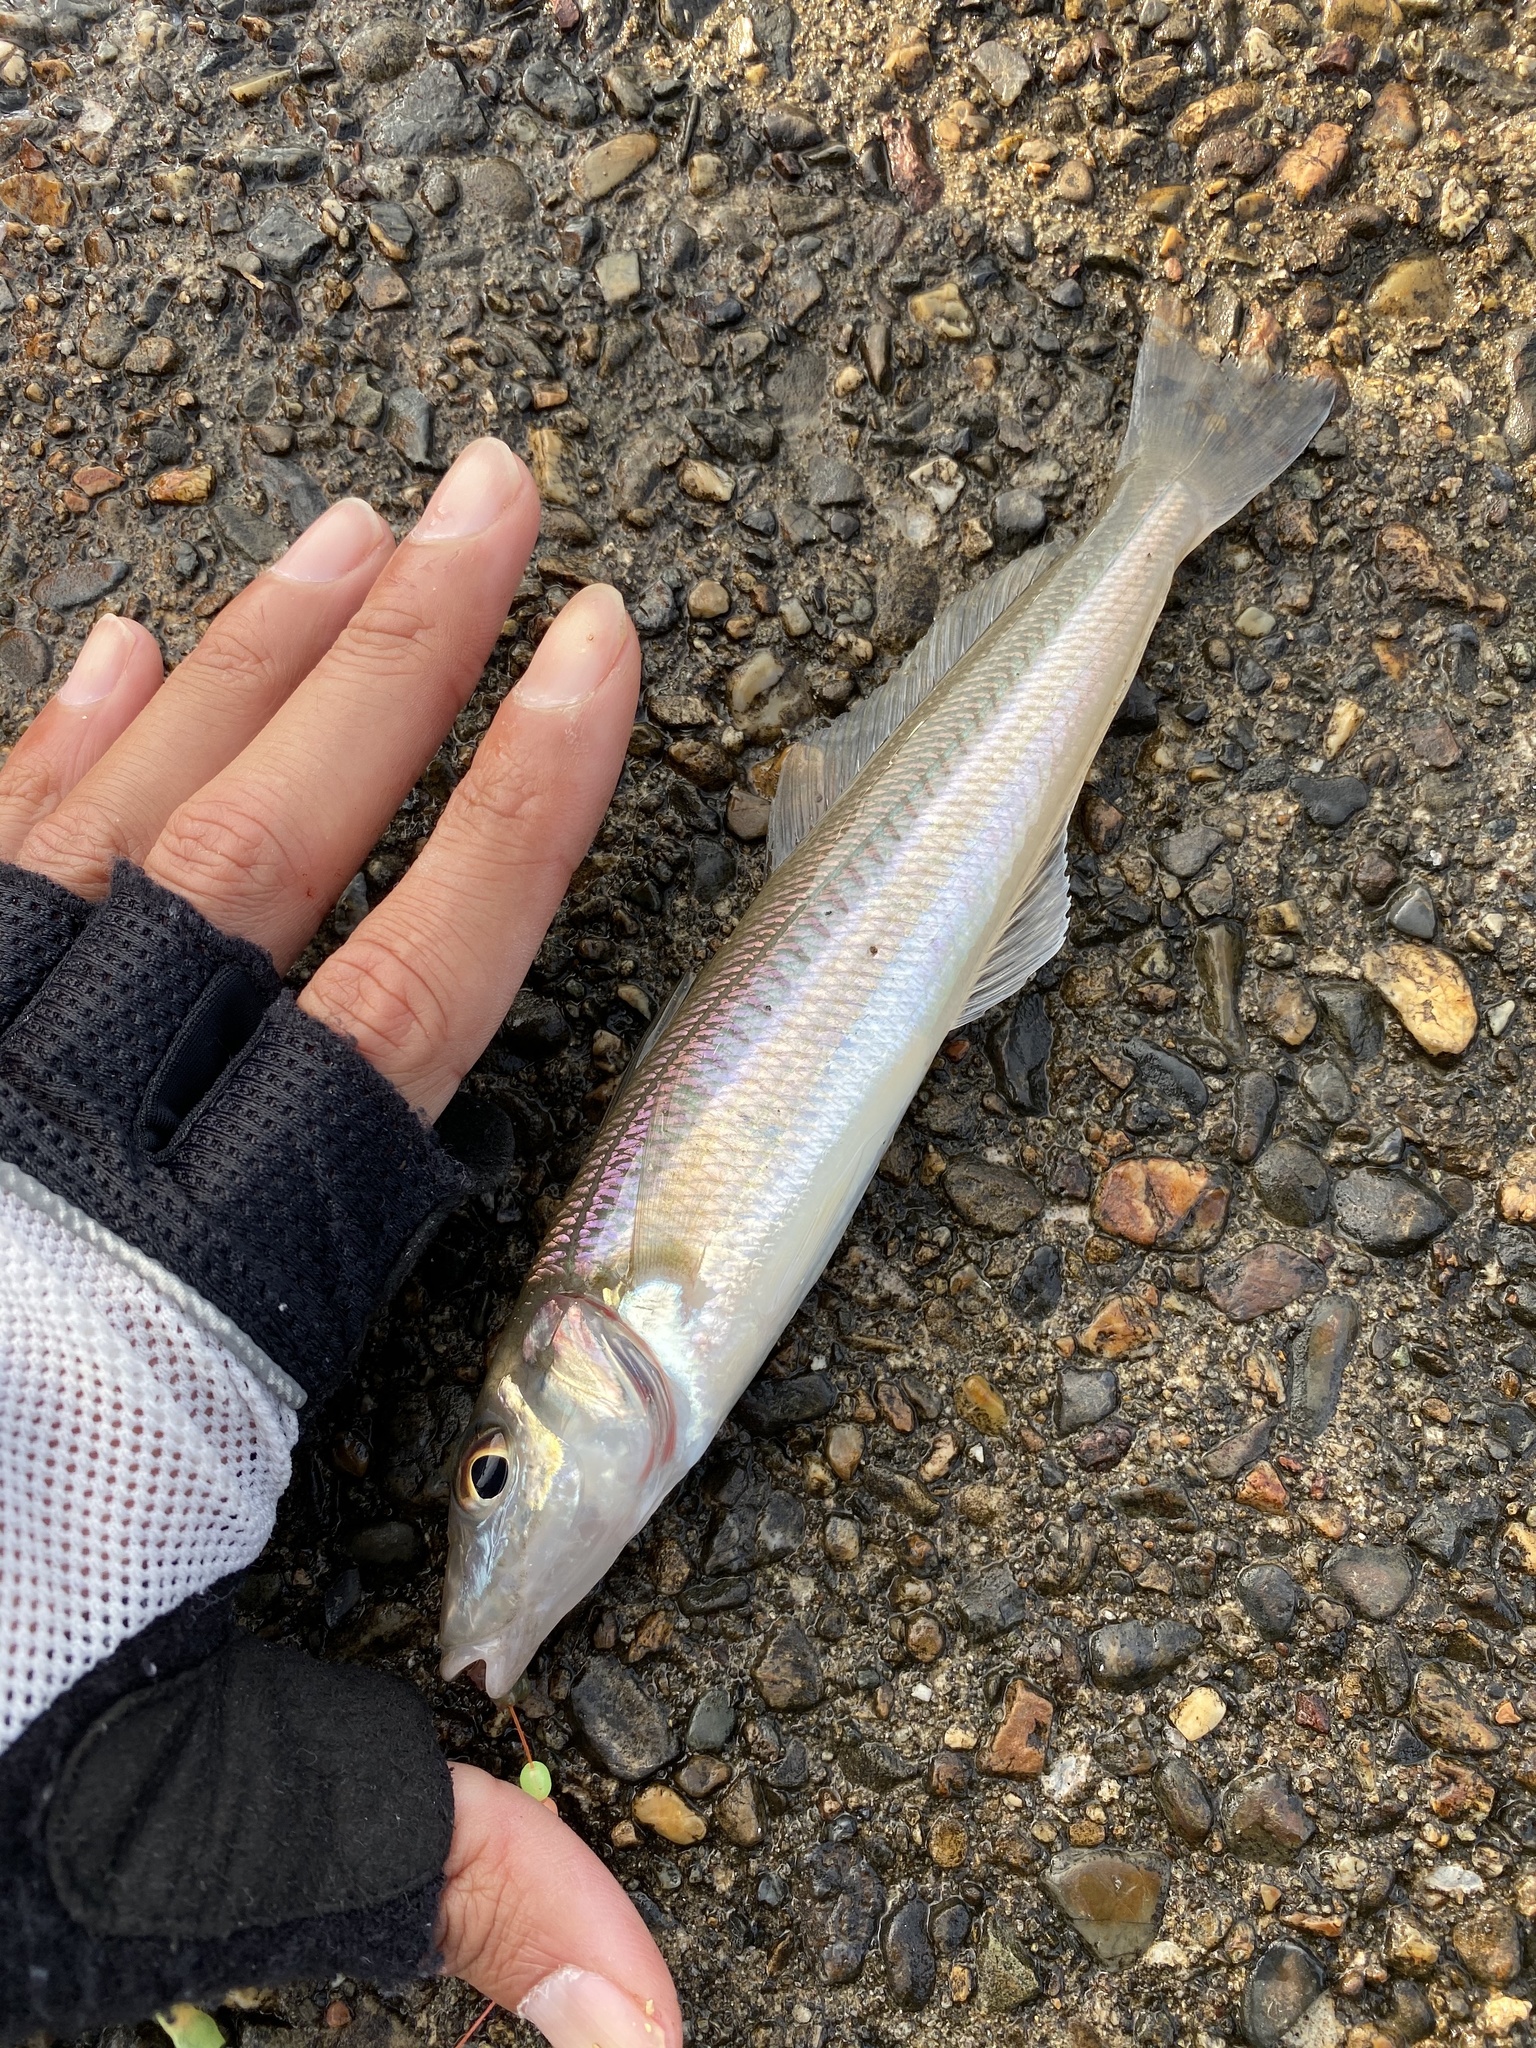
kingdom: Animalia
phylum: Chordata
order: Perciformes
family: Sillaginidae
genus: Sillago
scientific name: Sillago japonica
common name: Japanese sillago
